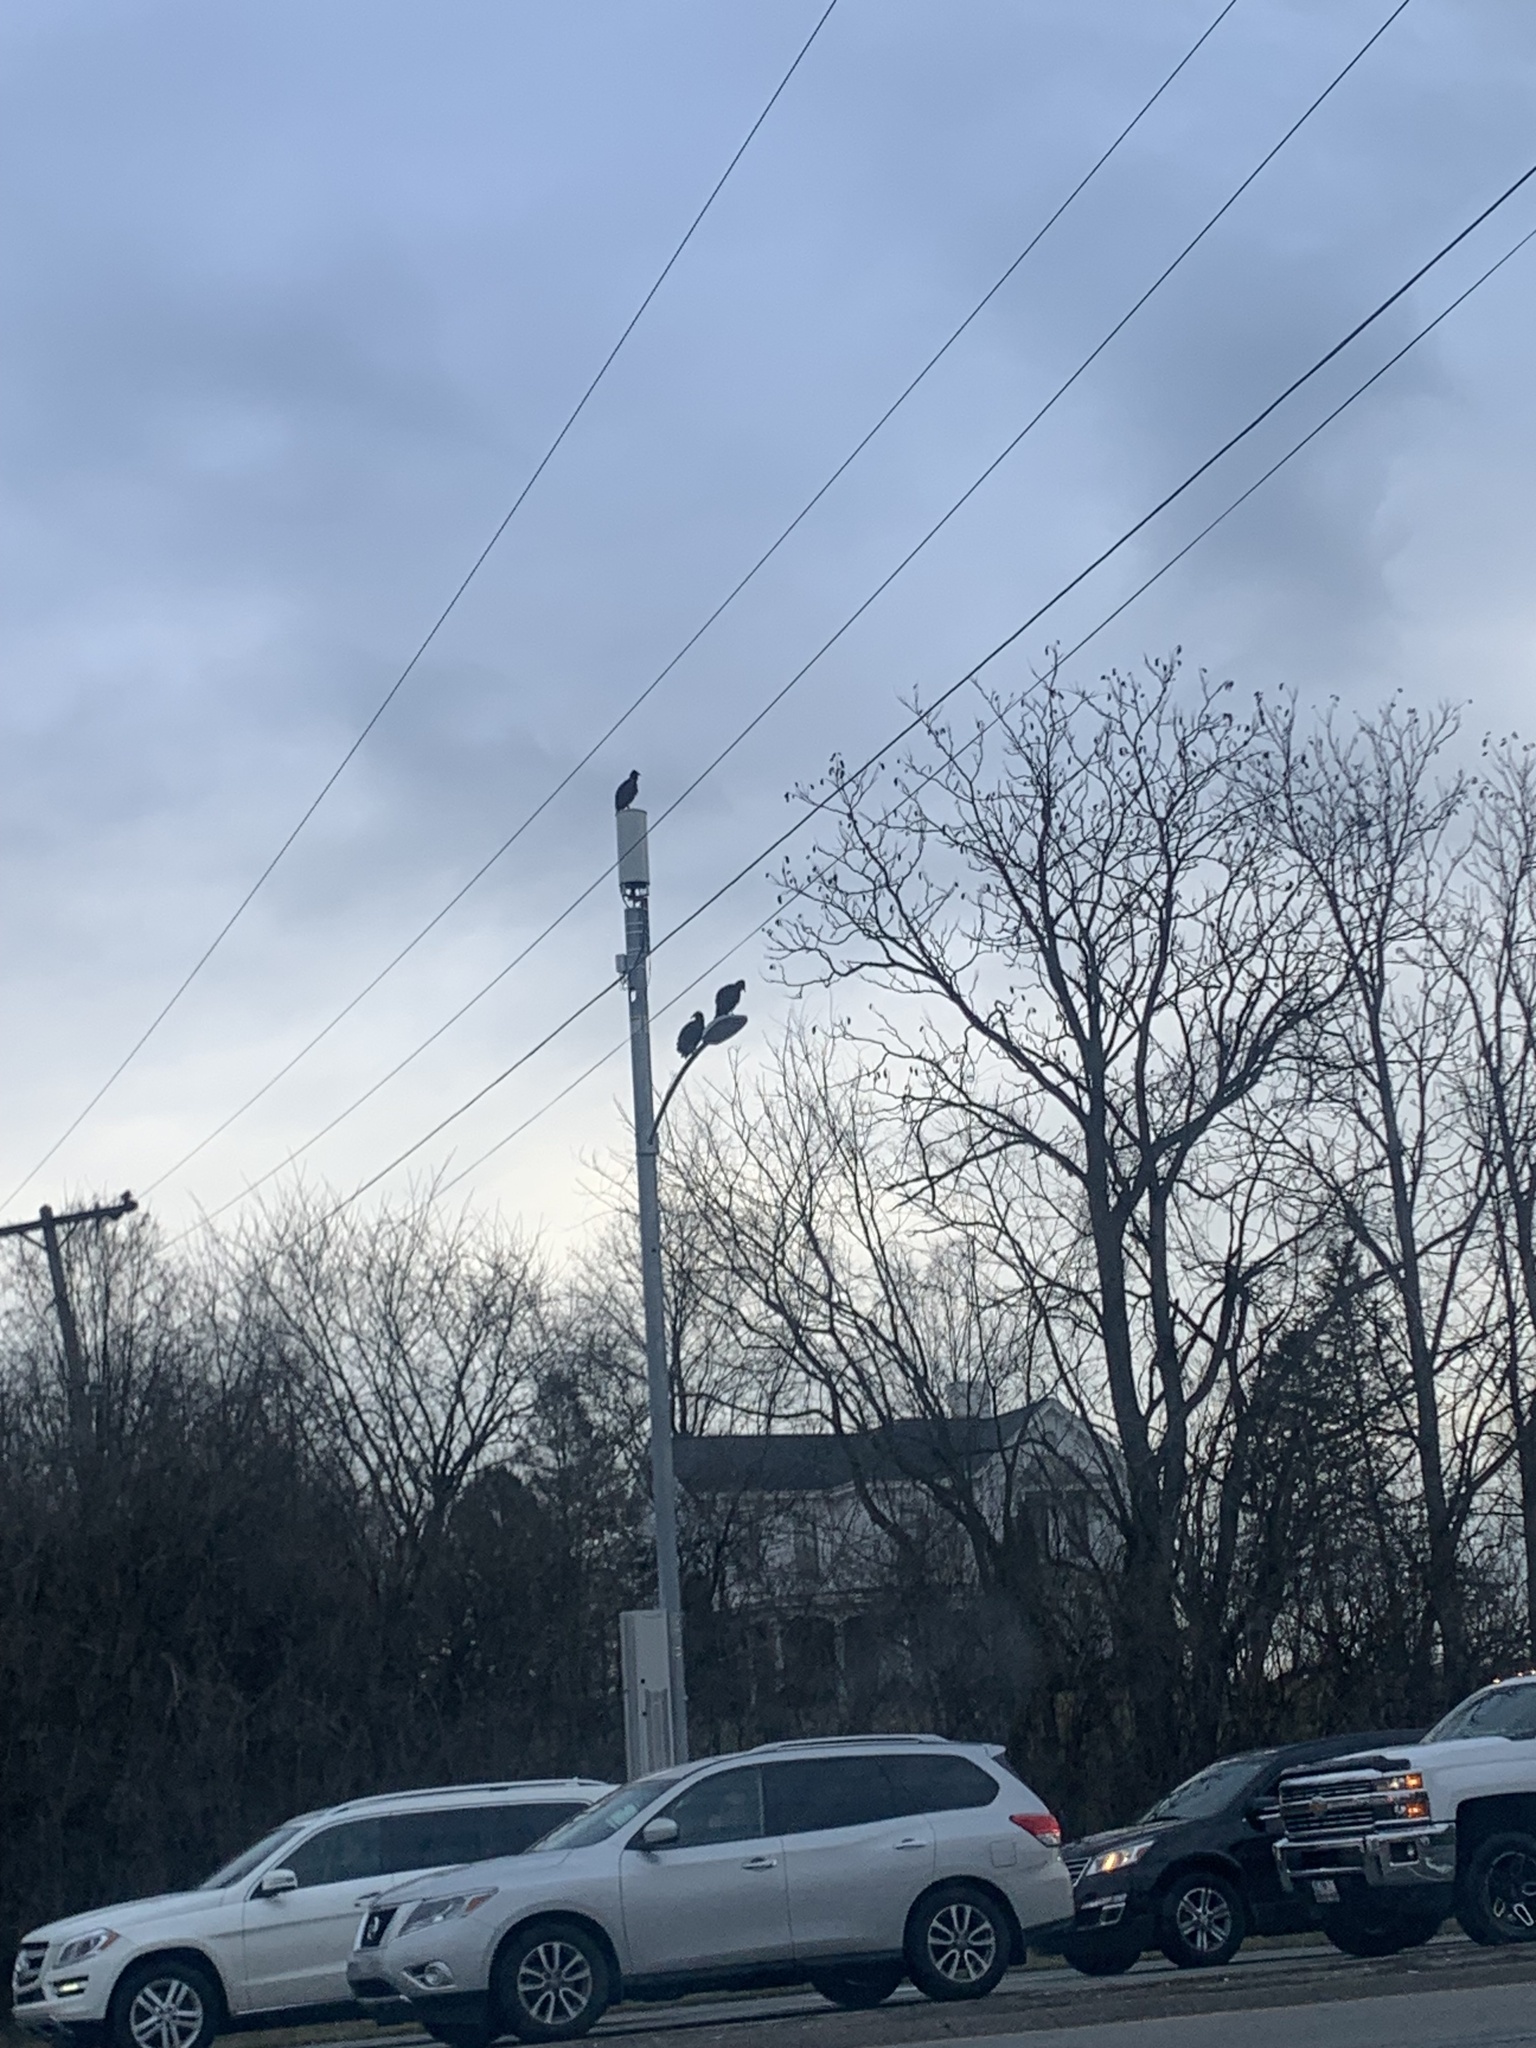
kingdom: Animalia
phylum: Chordata
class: Aves
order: Accipitriformes
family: Cathartidae
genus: Coragyps
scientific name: Coragyps atratus
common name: Black vulture
